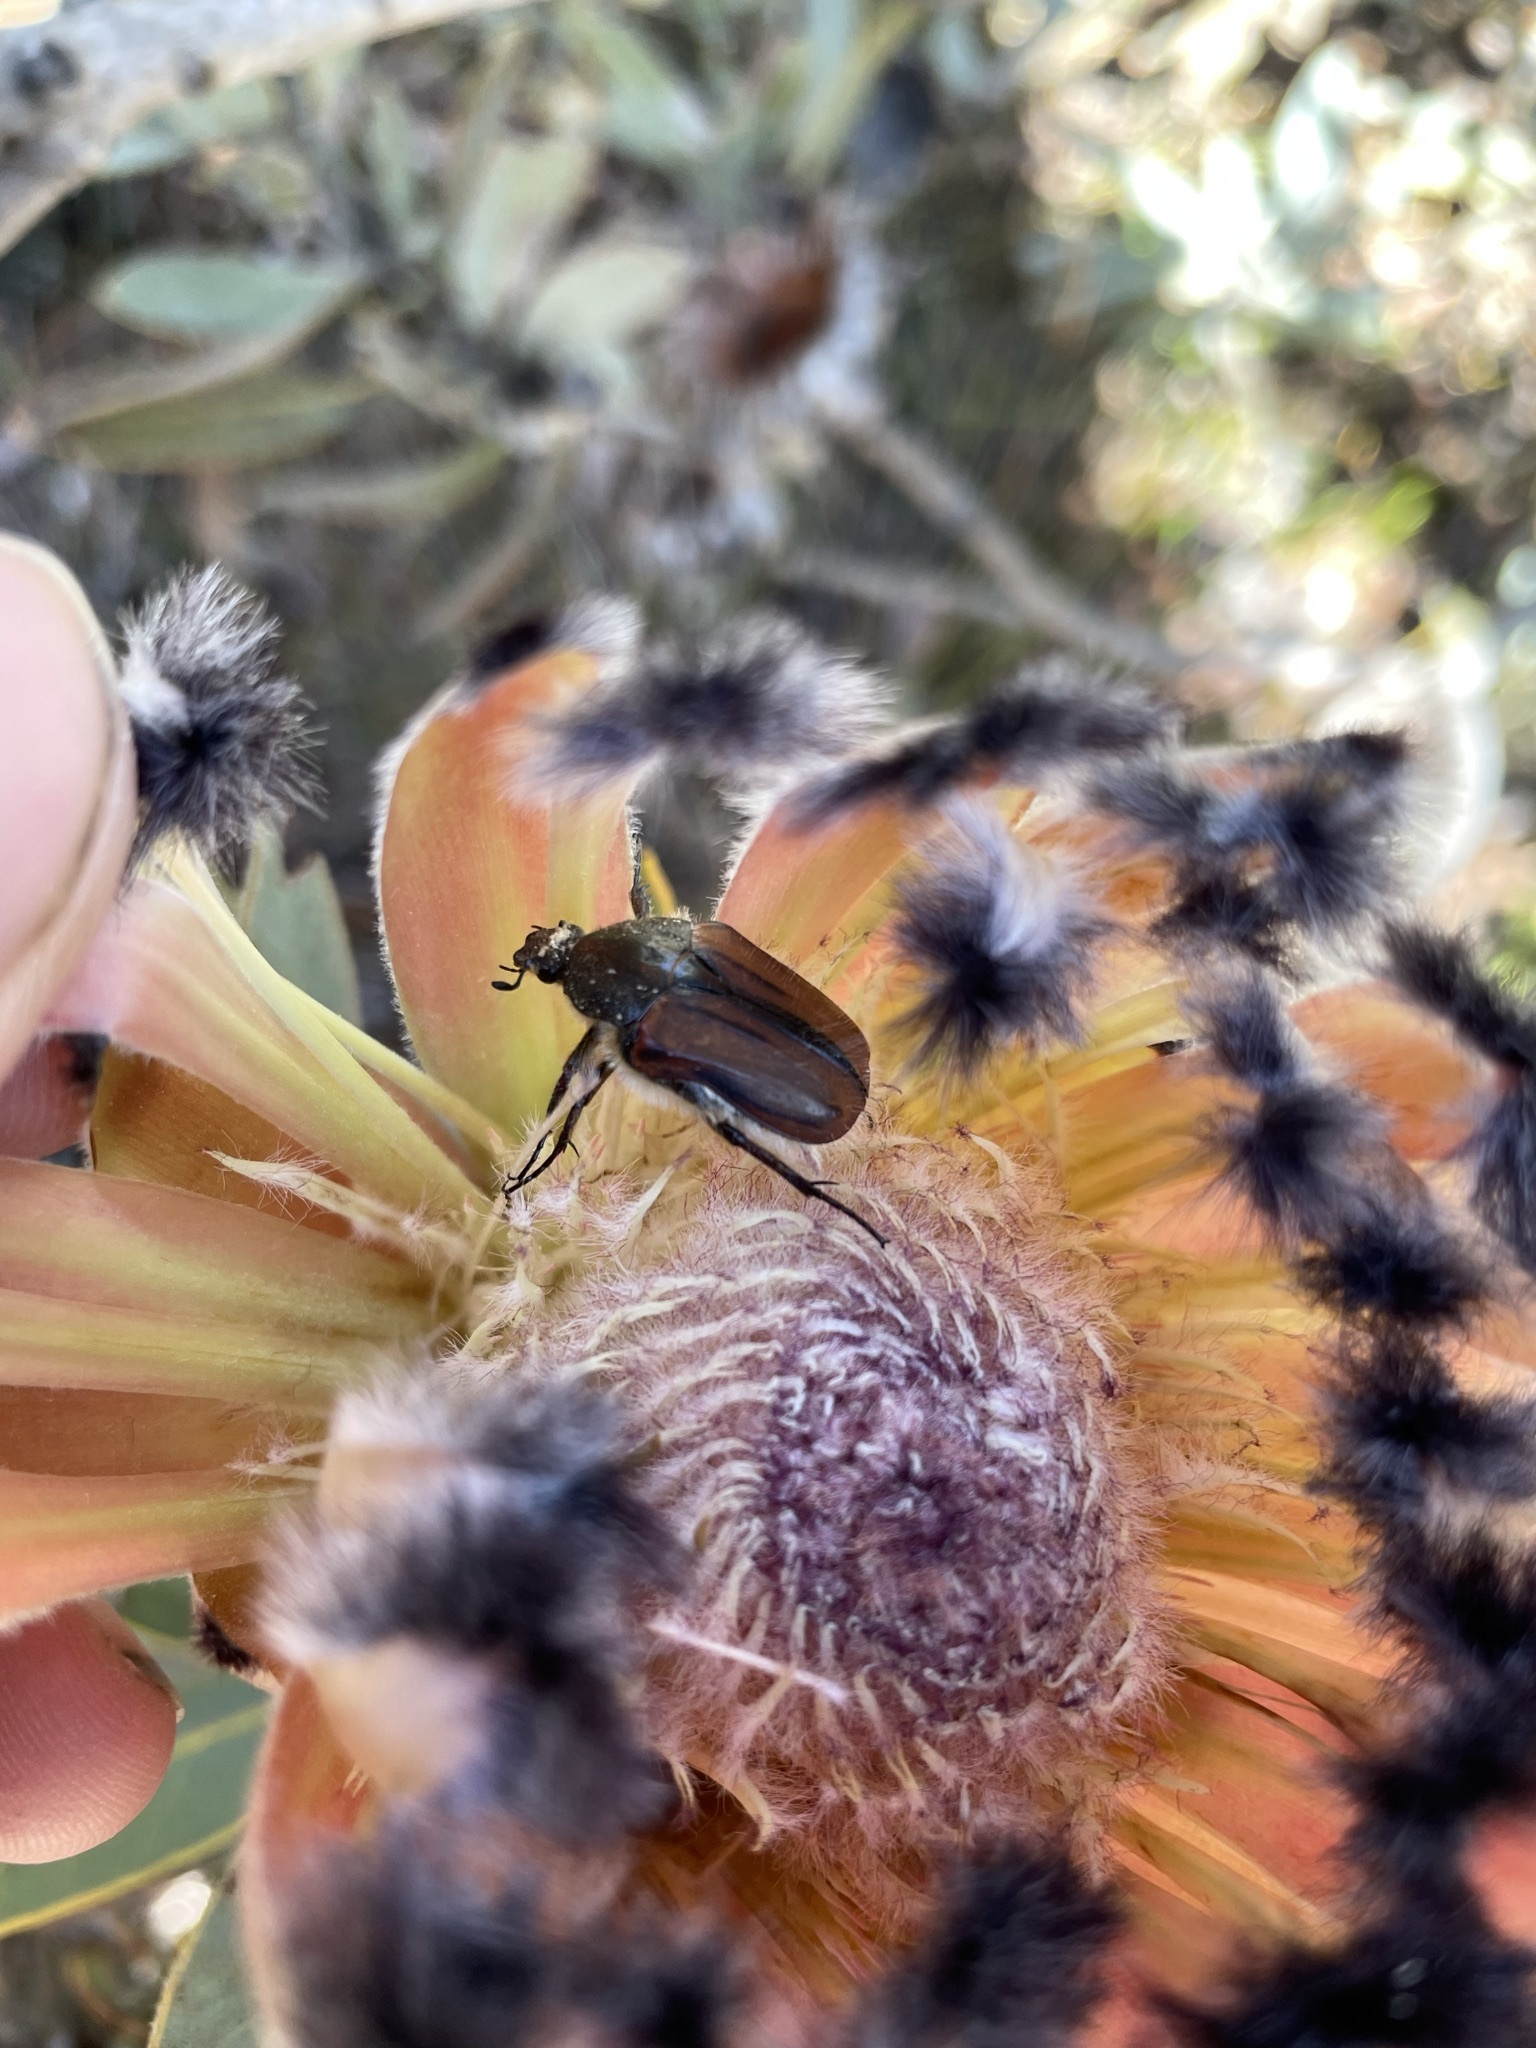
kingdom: Animalia
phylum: Arthropoda
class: Insecta
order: Coleoptera
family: Scarabaeidae
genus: Trichostetha
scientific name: Trichostetha capensis
